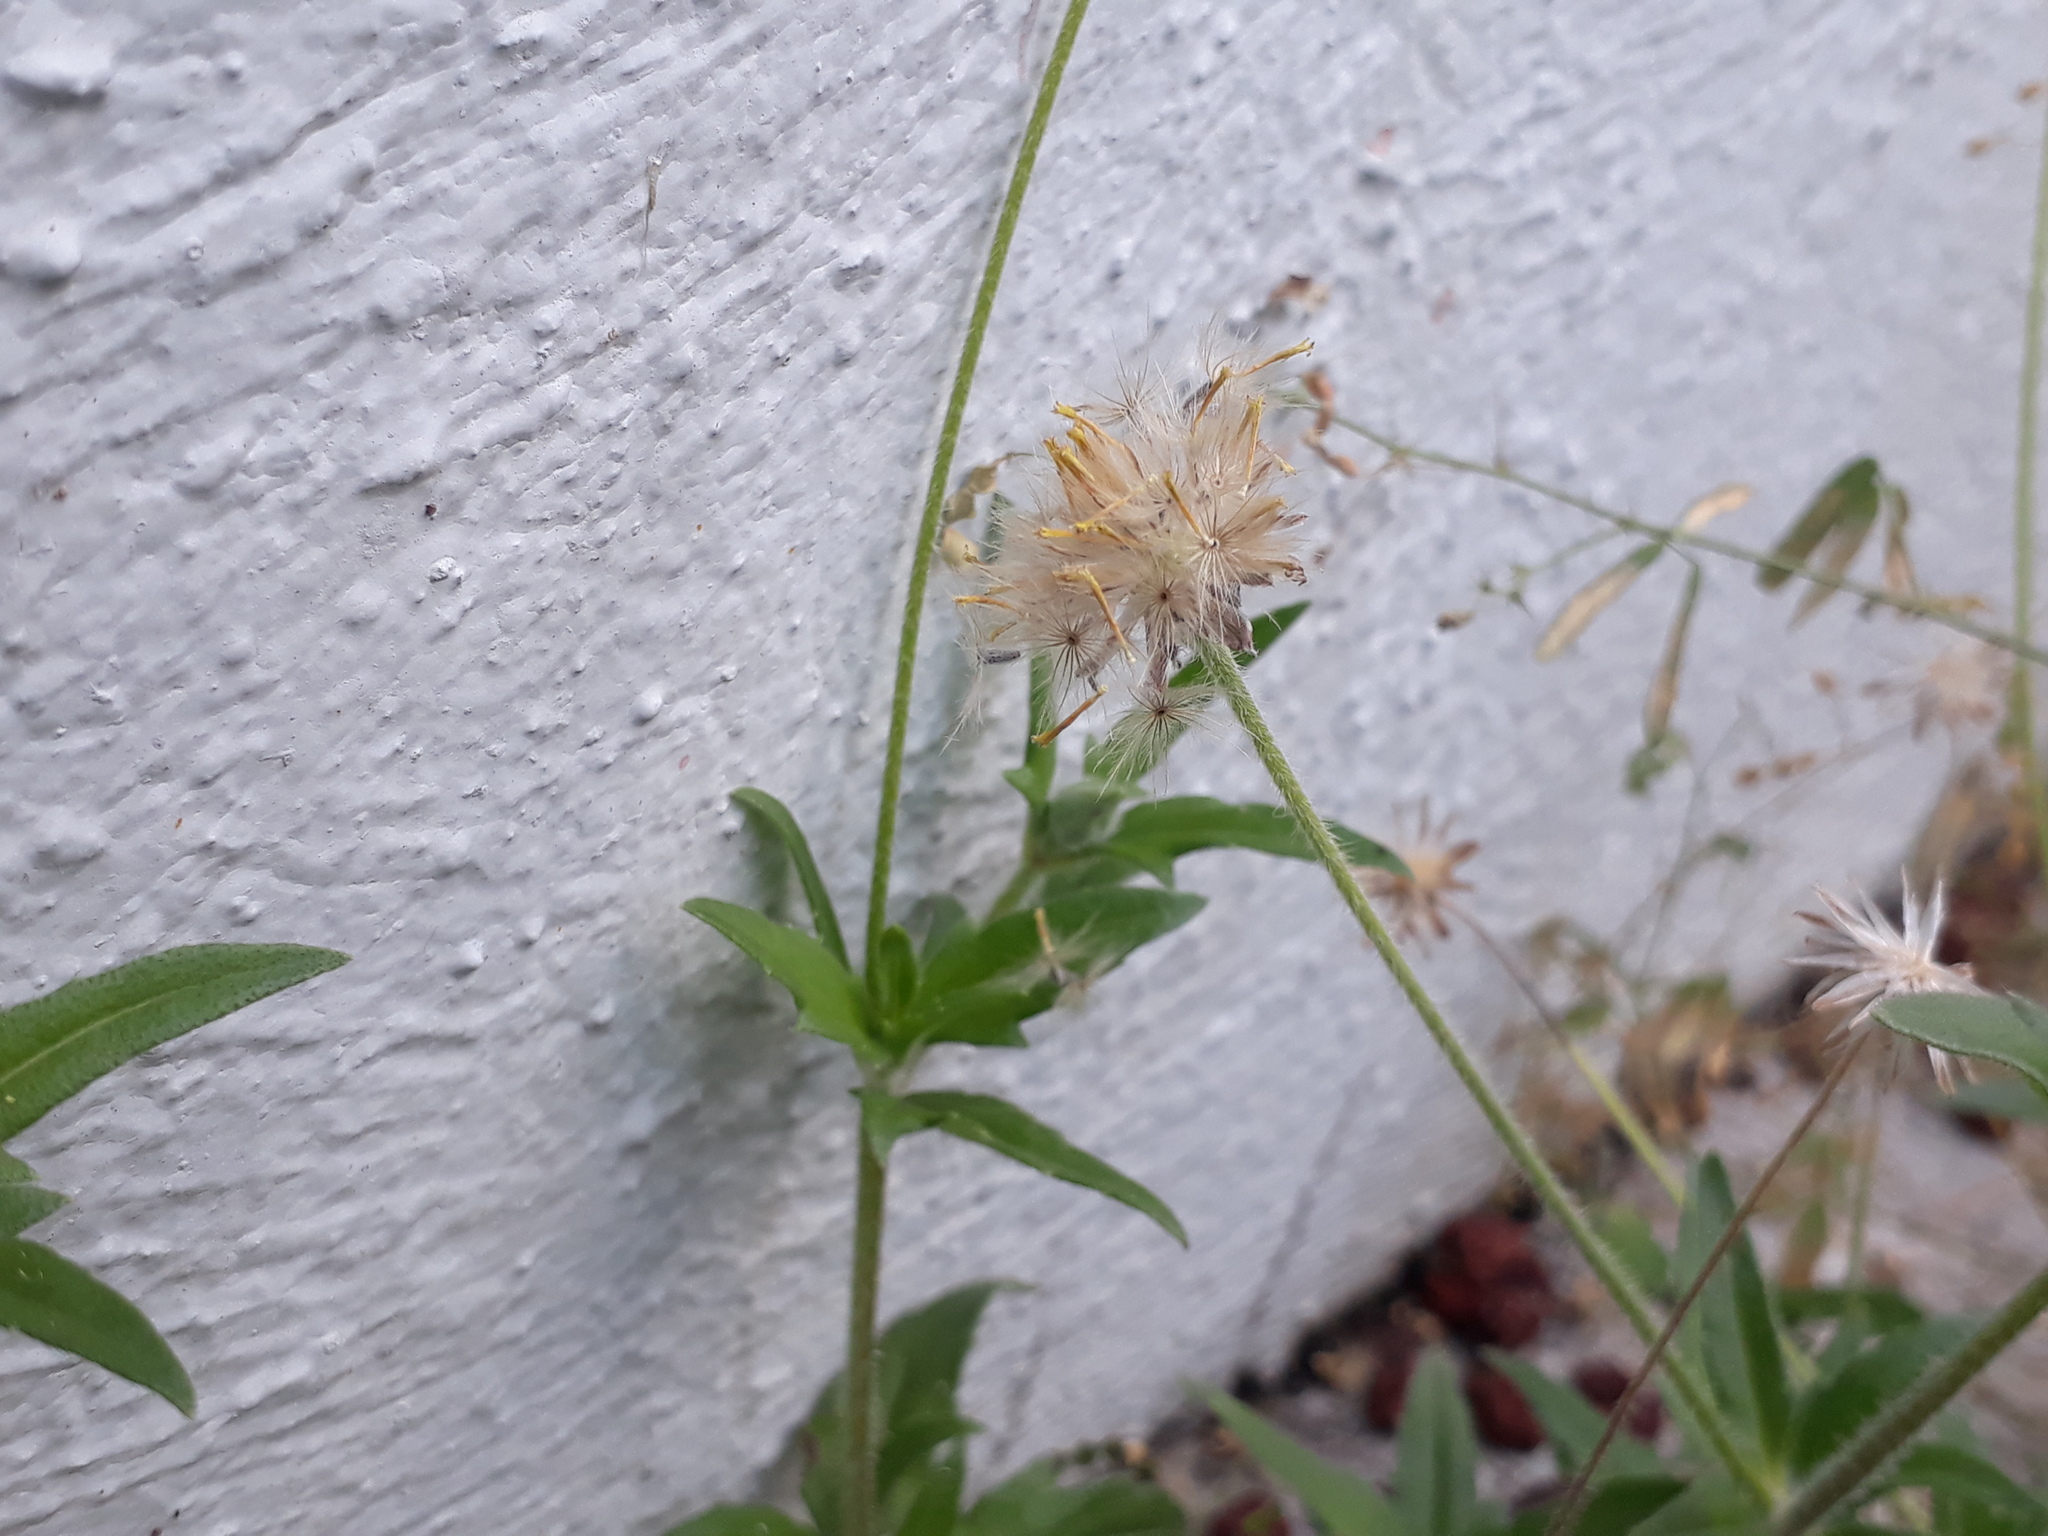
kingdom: Plantae
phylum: Tracheophyta
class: Magnoliopsida
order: Asterales
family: Asteraceae
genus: Tridax
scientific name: Tridax procumbens
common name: Coatbuttons
